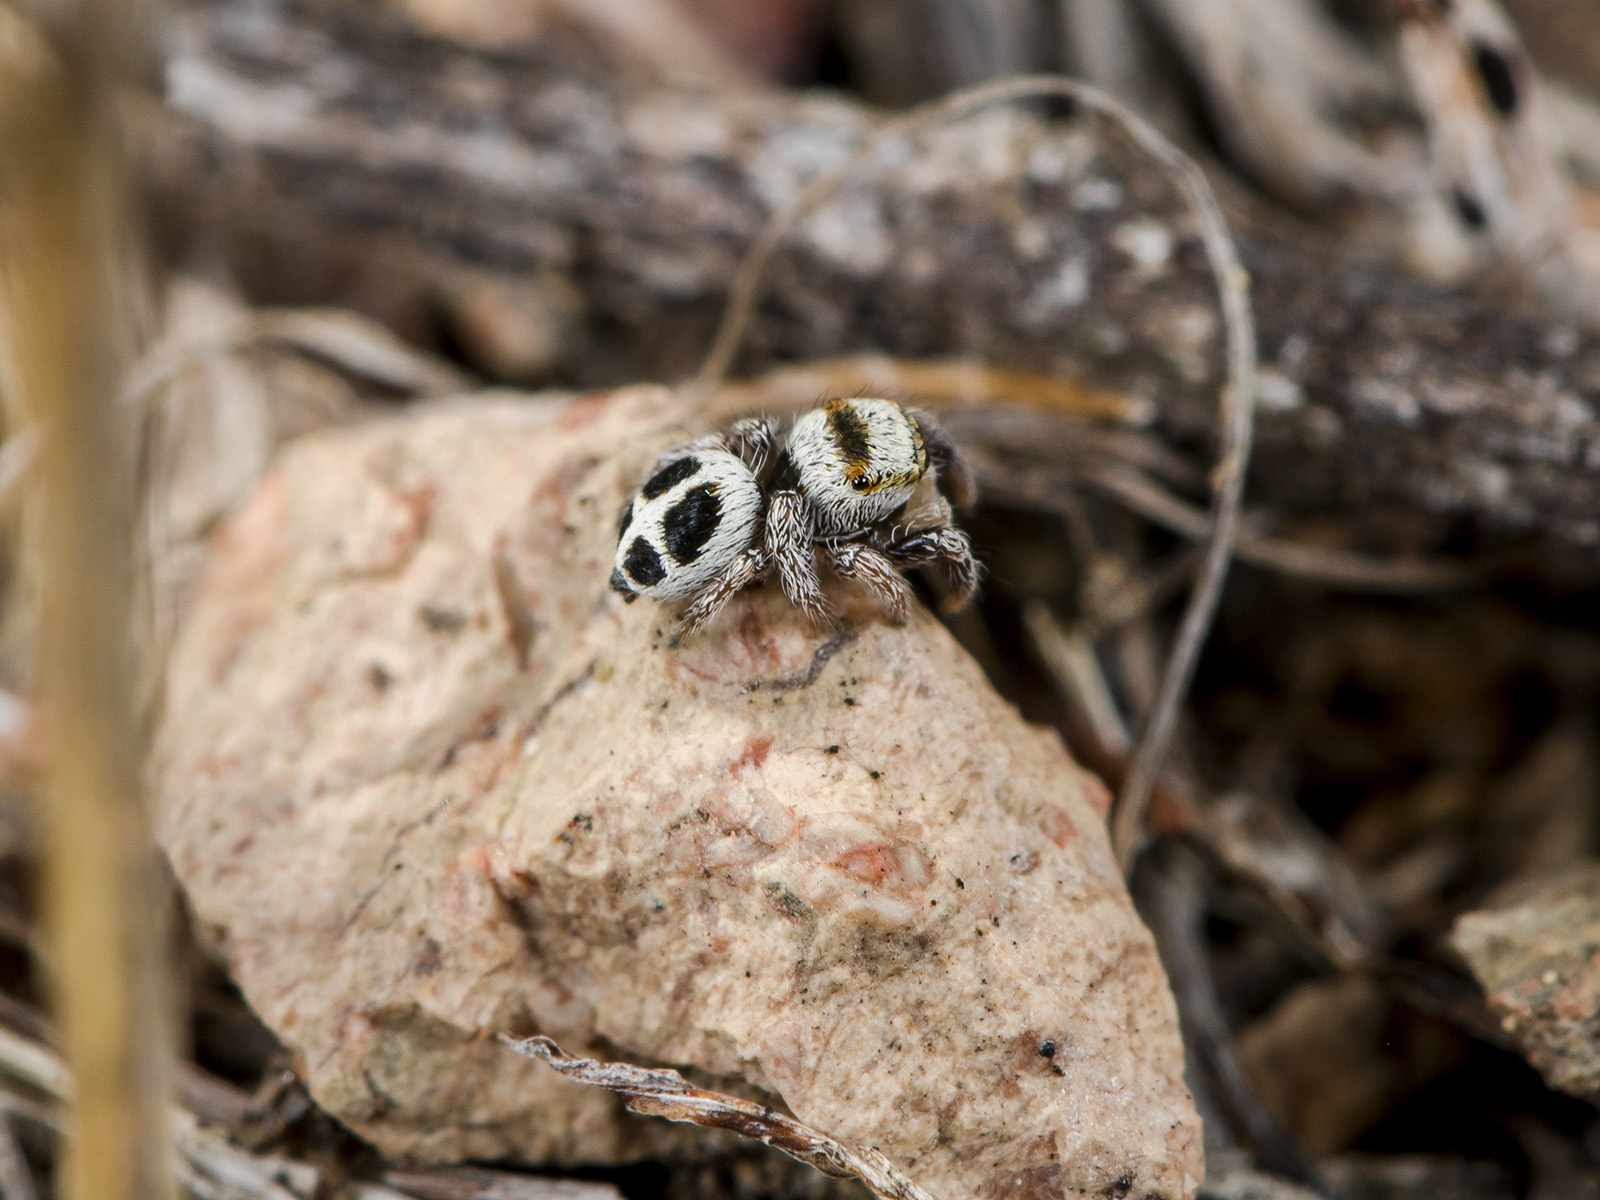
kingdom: Animalia
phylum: Arthropoda
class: Arachnida
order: Araneae
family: Salticidae
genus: Pellenes
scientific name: Pellenes geniculatus
